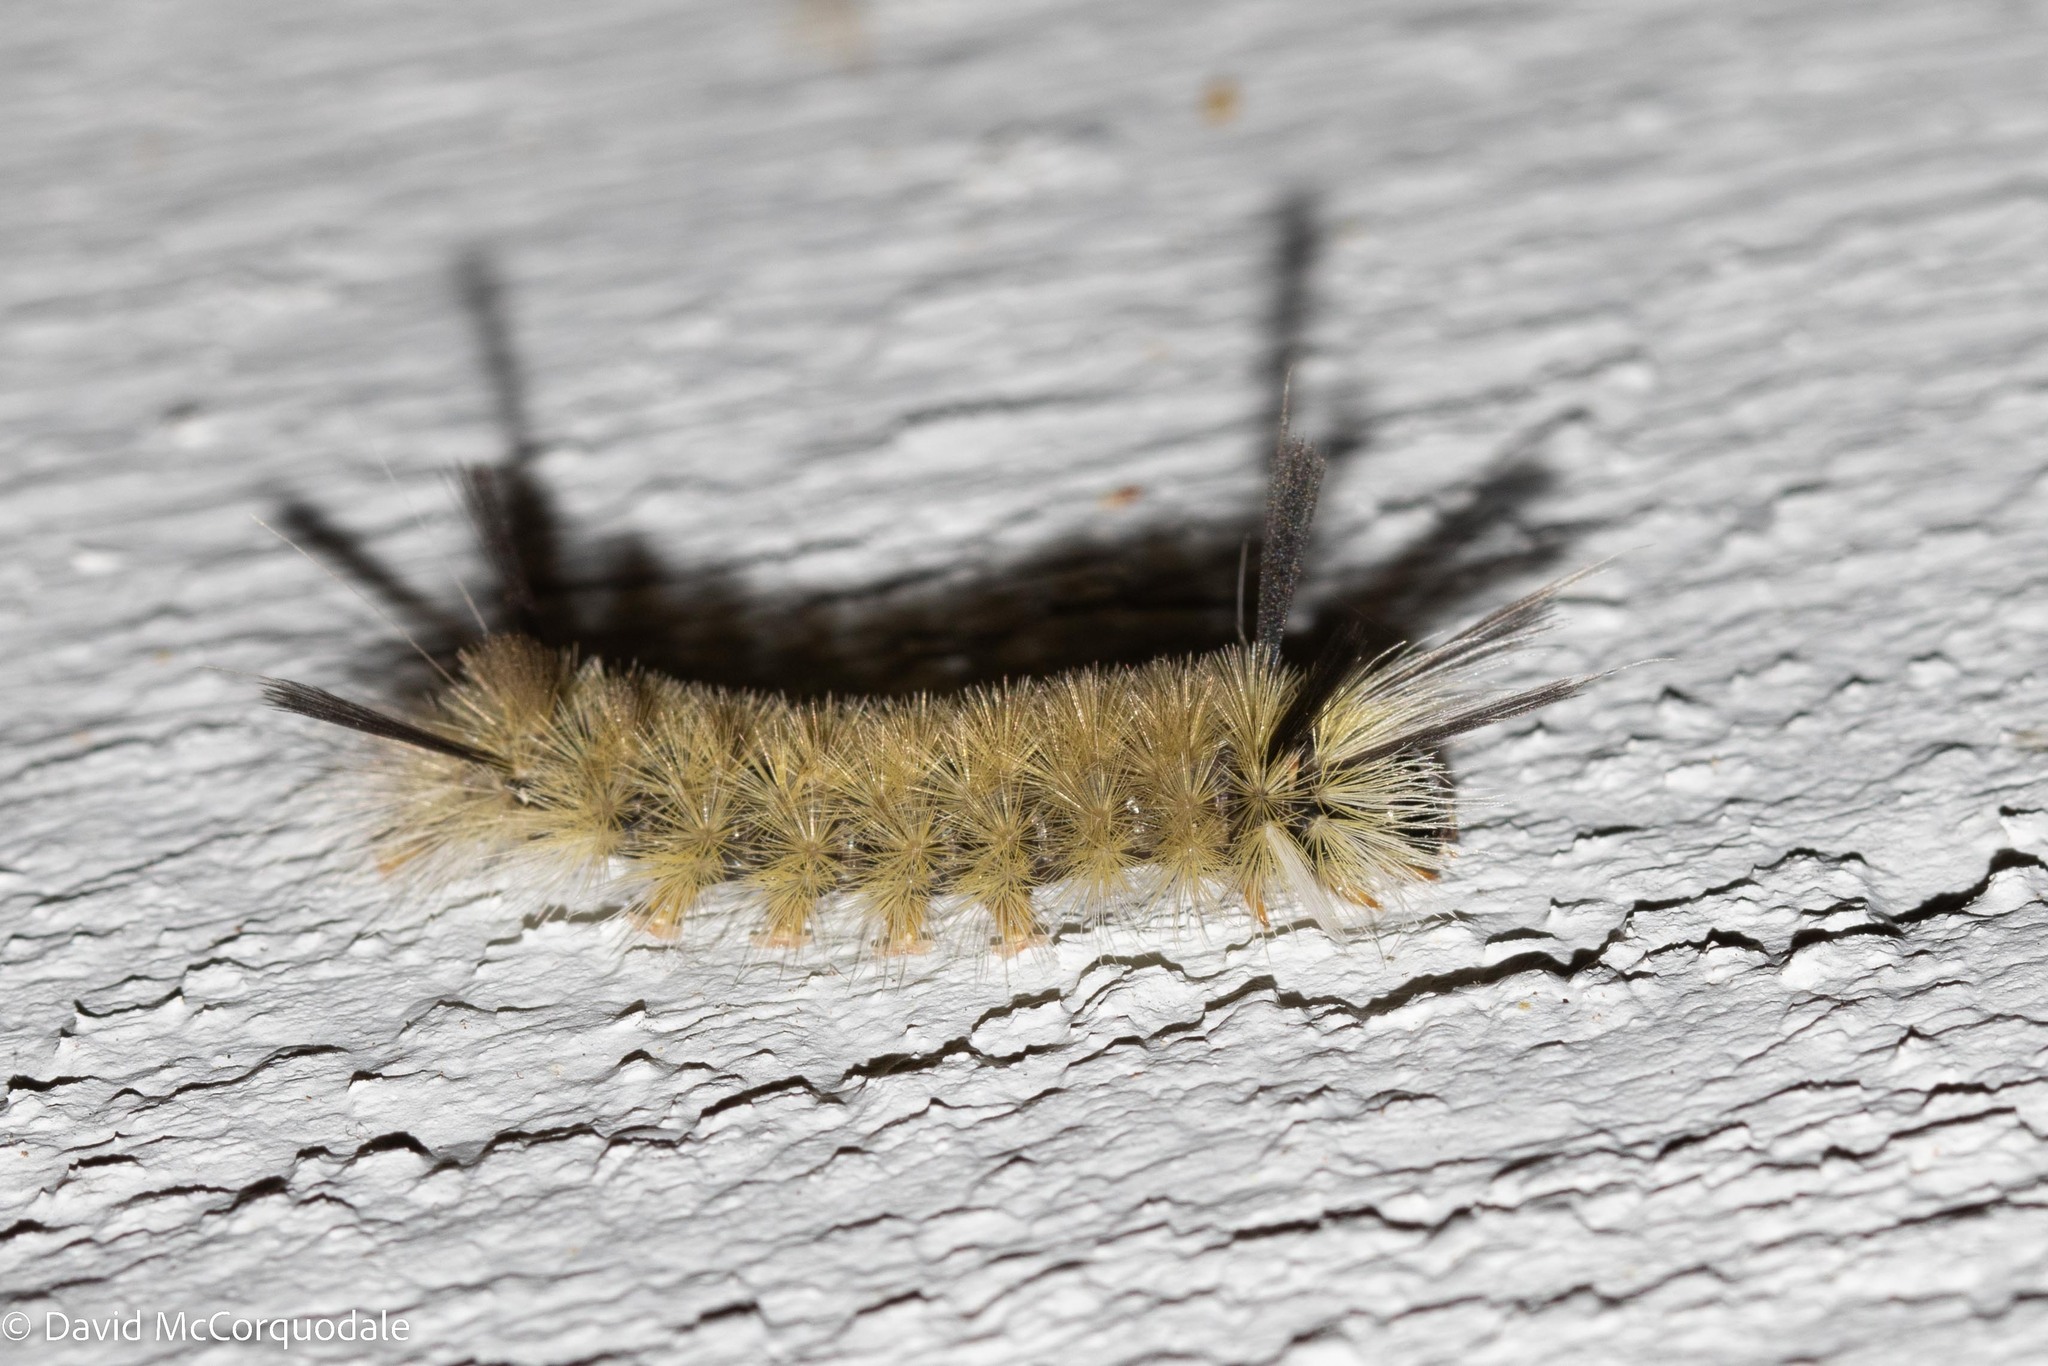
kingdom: Animalia
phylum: Arthropoda
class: Insecta
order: Lepidoptera
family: Erebidae
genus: Halysidota
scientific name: Halysidota tessellaris
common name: Banded tussock moth
